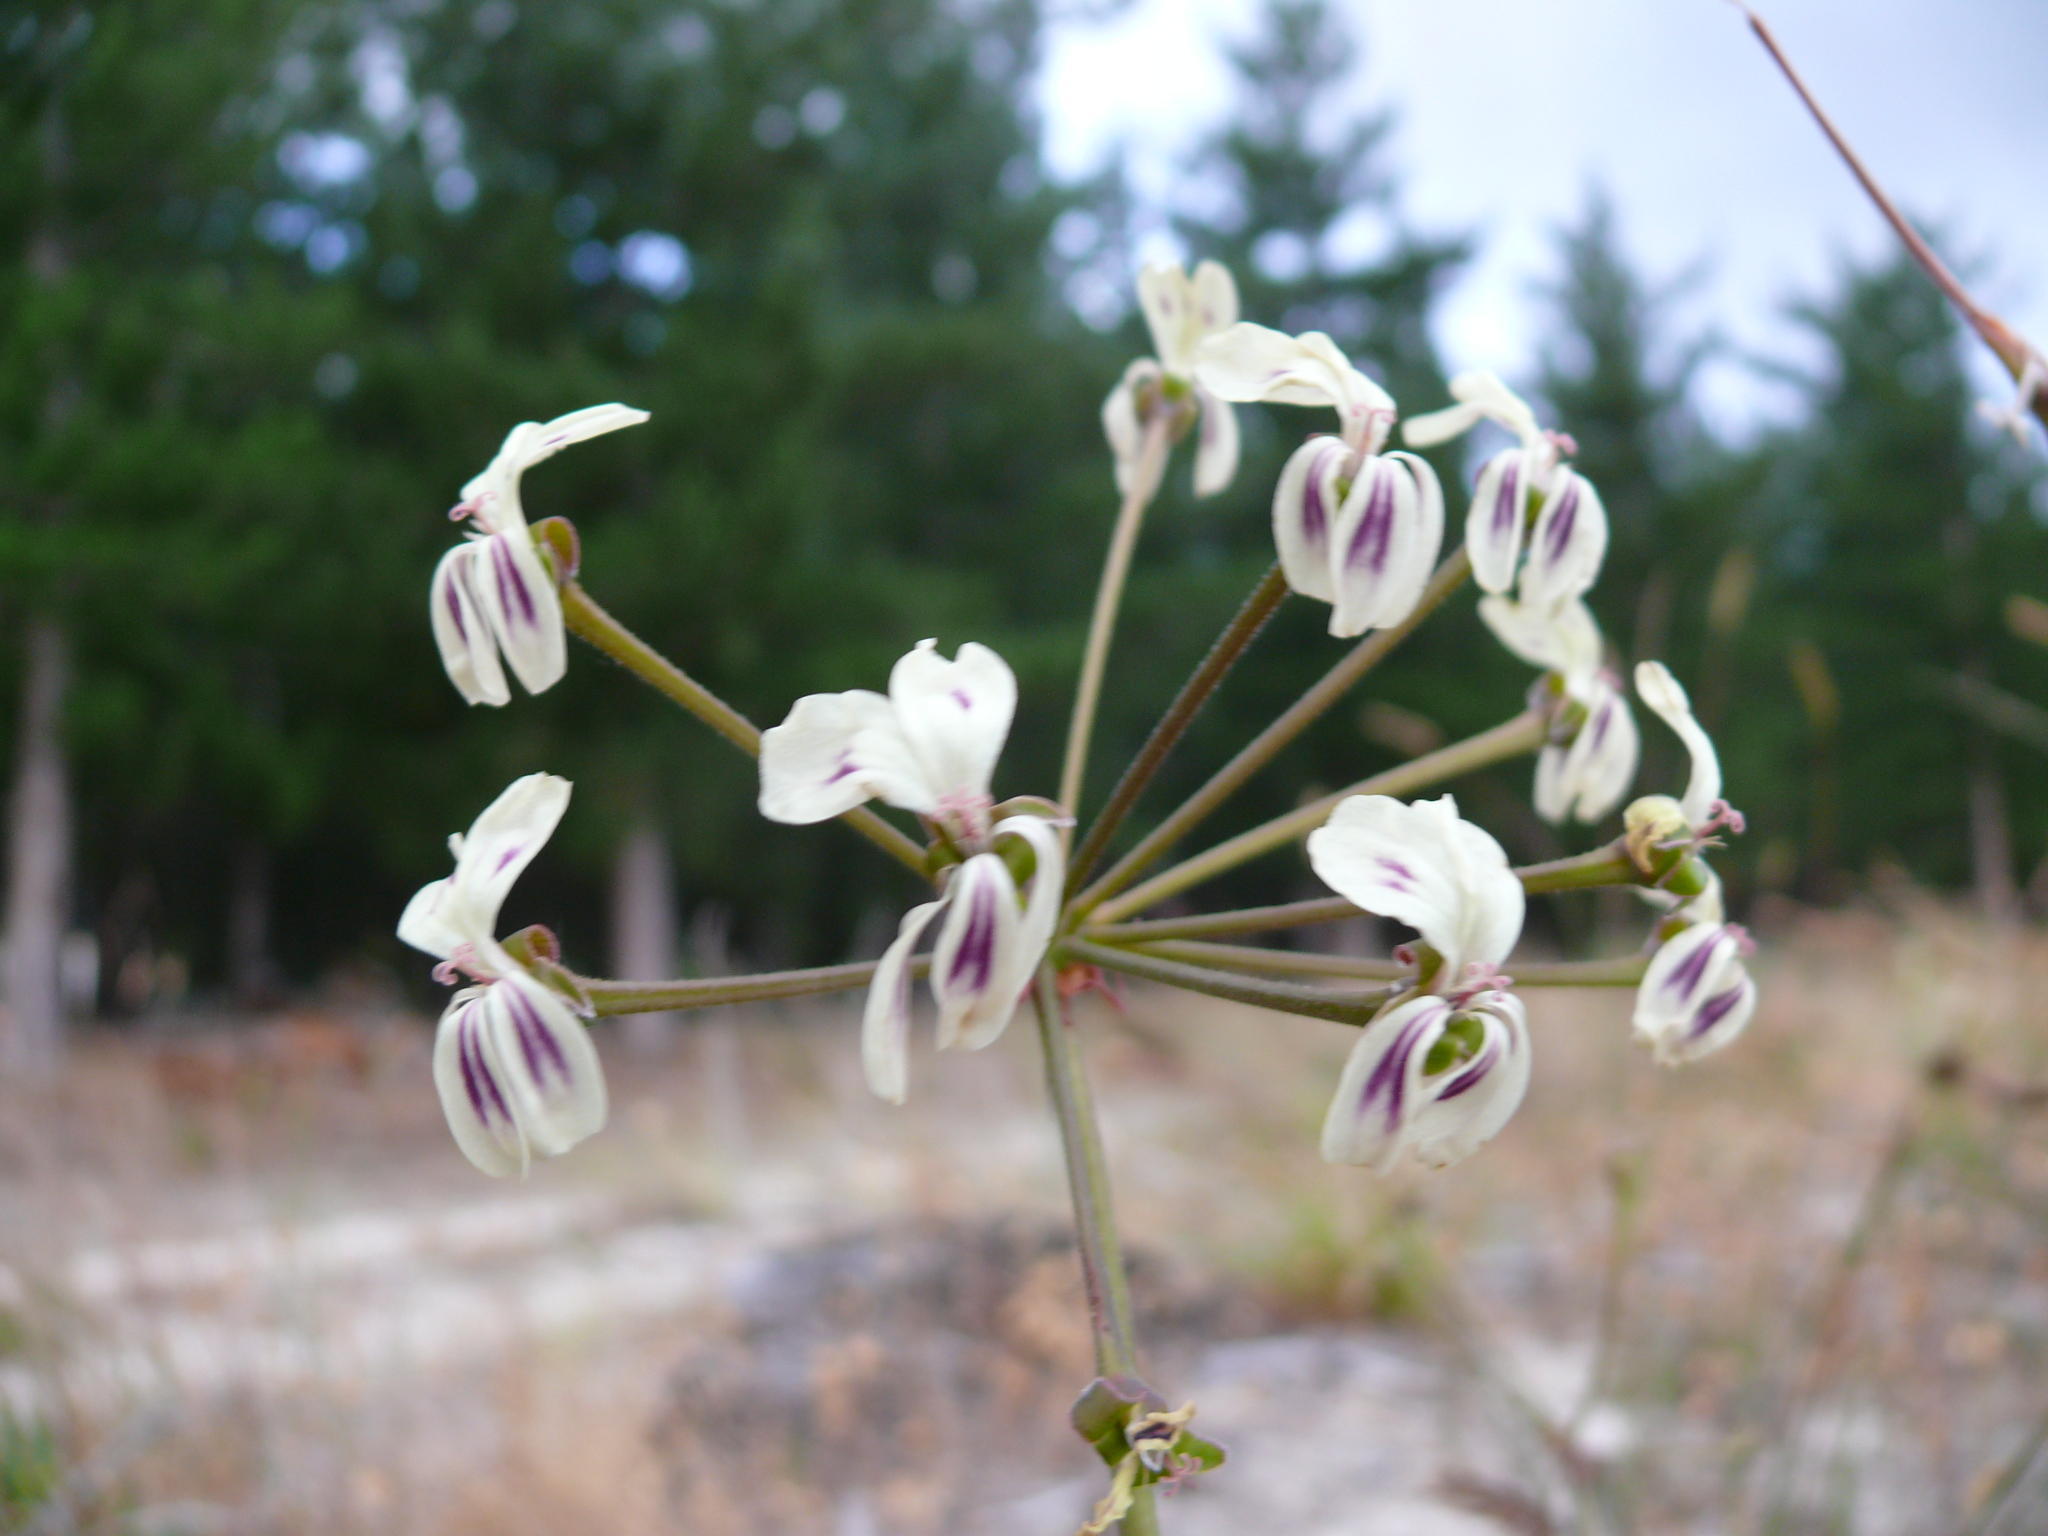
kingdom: Plantae
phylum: Tracheophyta
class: Magnoliopsida
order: Geraniales
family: Geraniaceae
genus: Pelargonium
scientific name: Pelargonium triste
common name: Night-scent pelargonium
